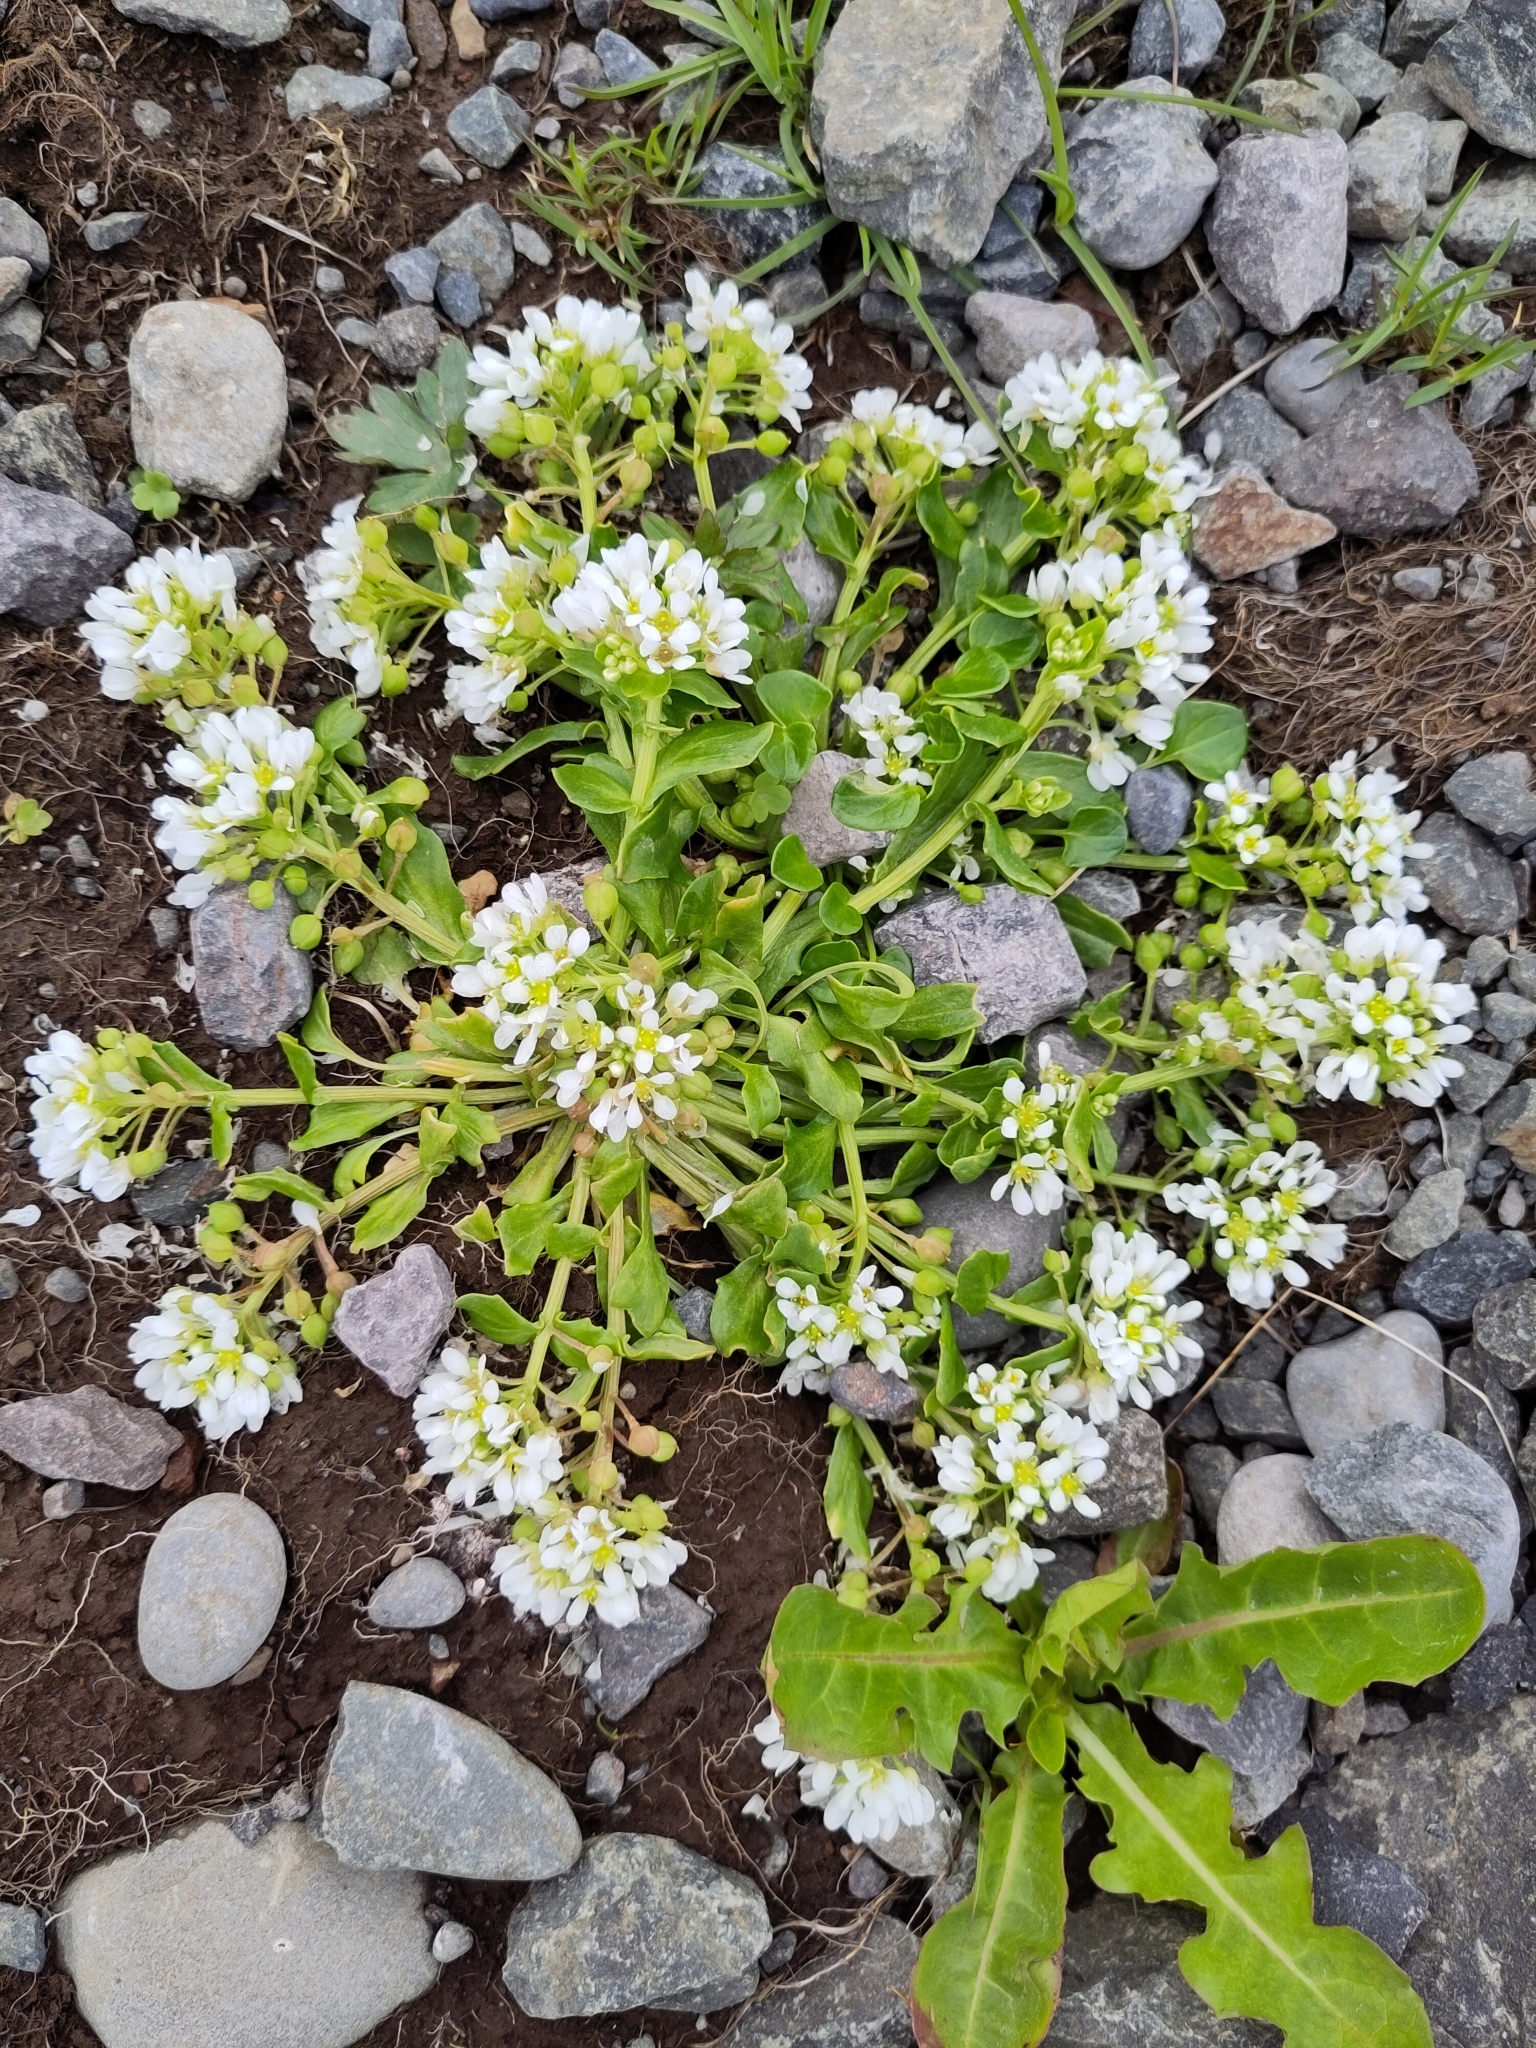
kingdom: Plantae
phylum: Tracheophyta
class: Magnoliopsida
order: Brassicales
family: Brassicaceae
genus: Cochlearia
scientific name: Cochlearia officinalis
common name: Scurvy-grass
